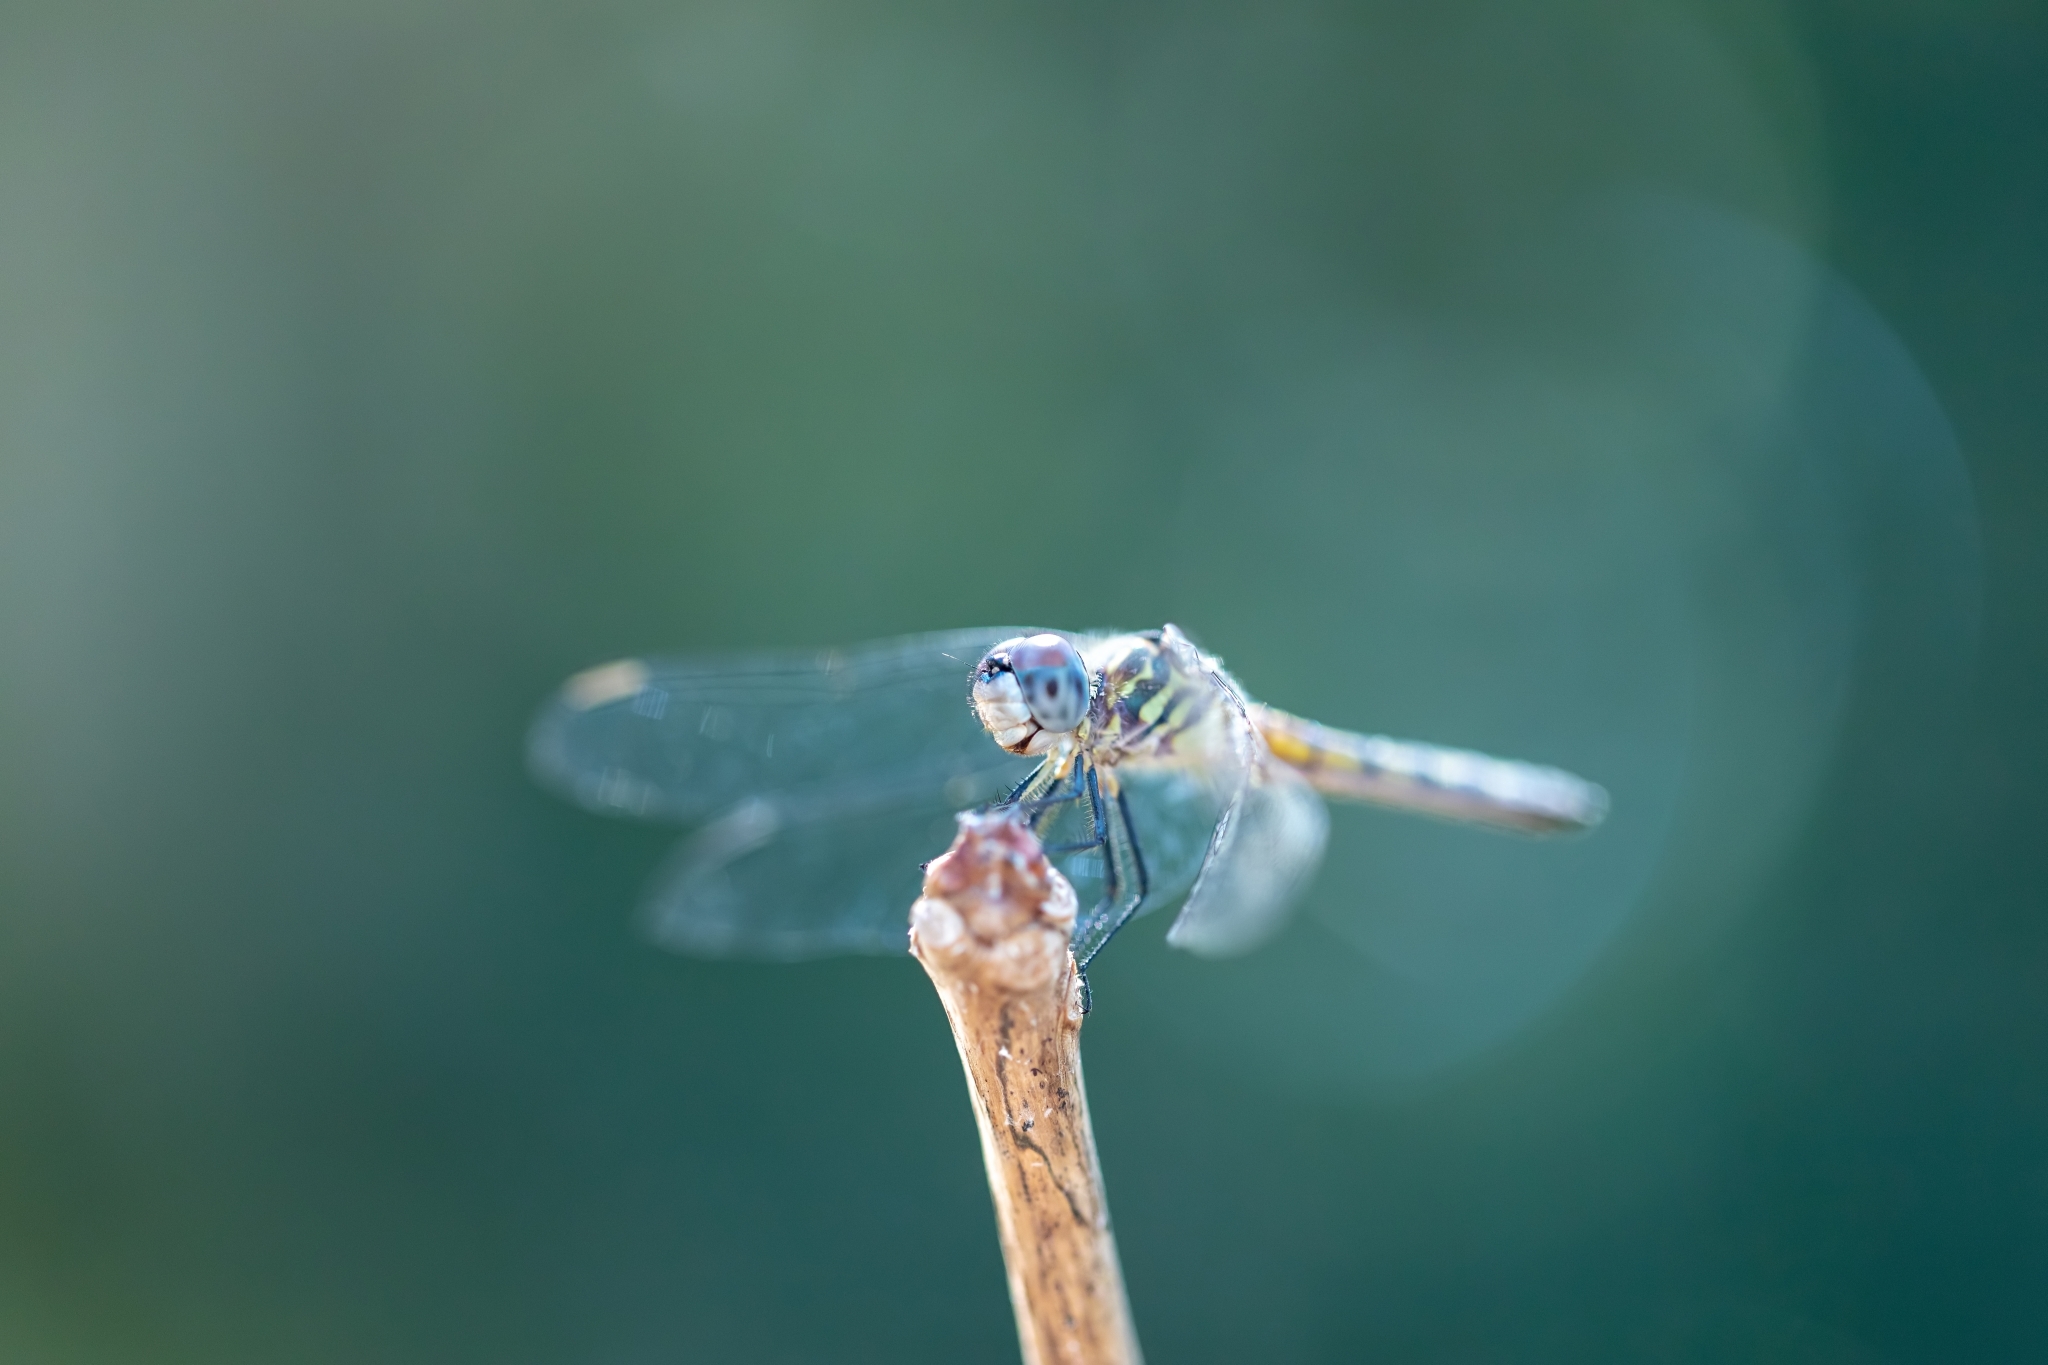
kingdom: Animalia
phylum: Arthropoda
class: Insecta
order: Odonata
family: Libellulidae
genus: Pachydiplax
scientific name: Pachydiplax longipennis
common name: Blue dasher
